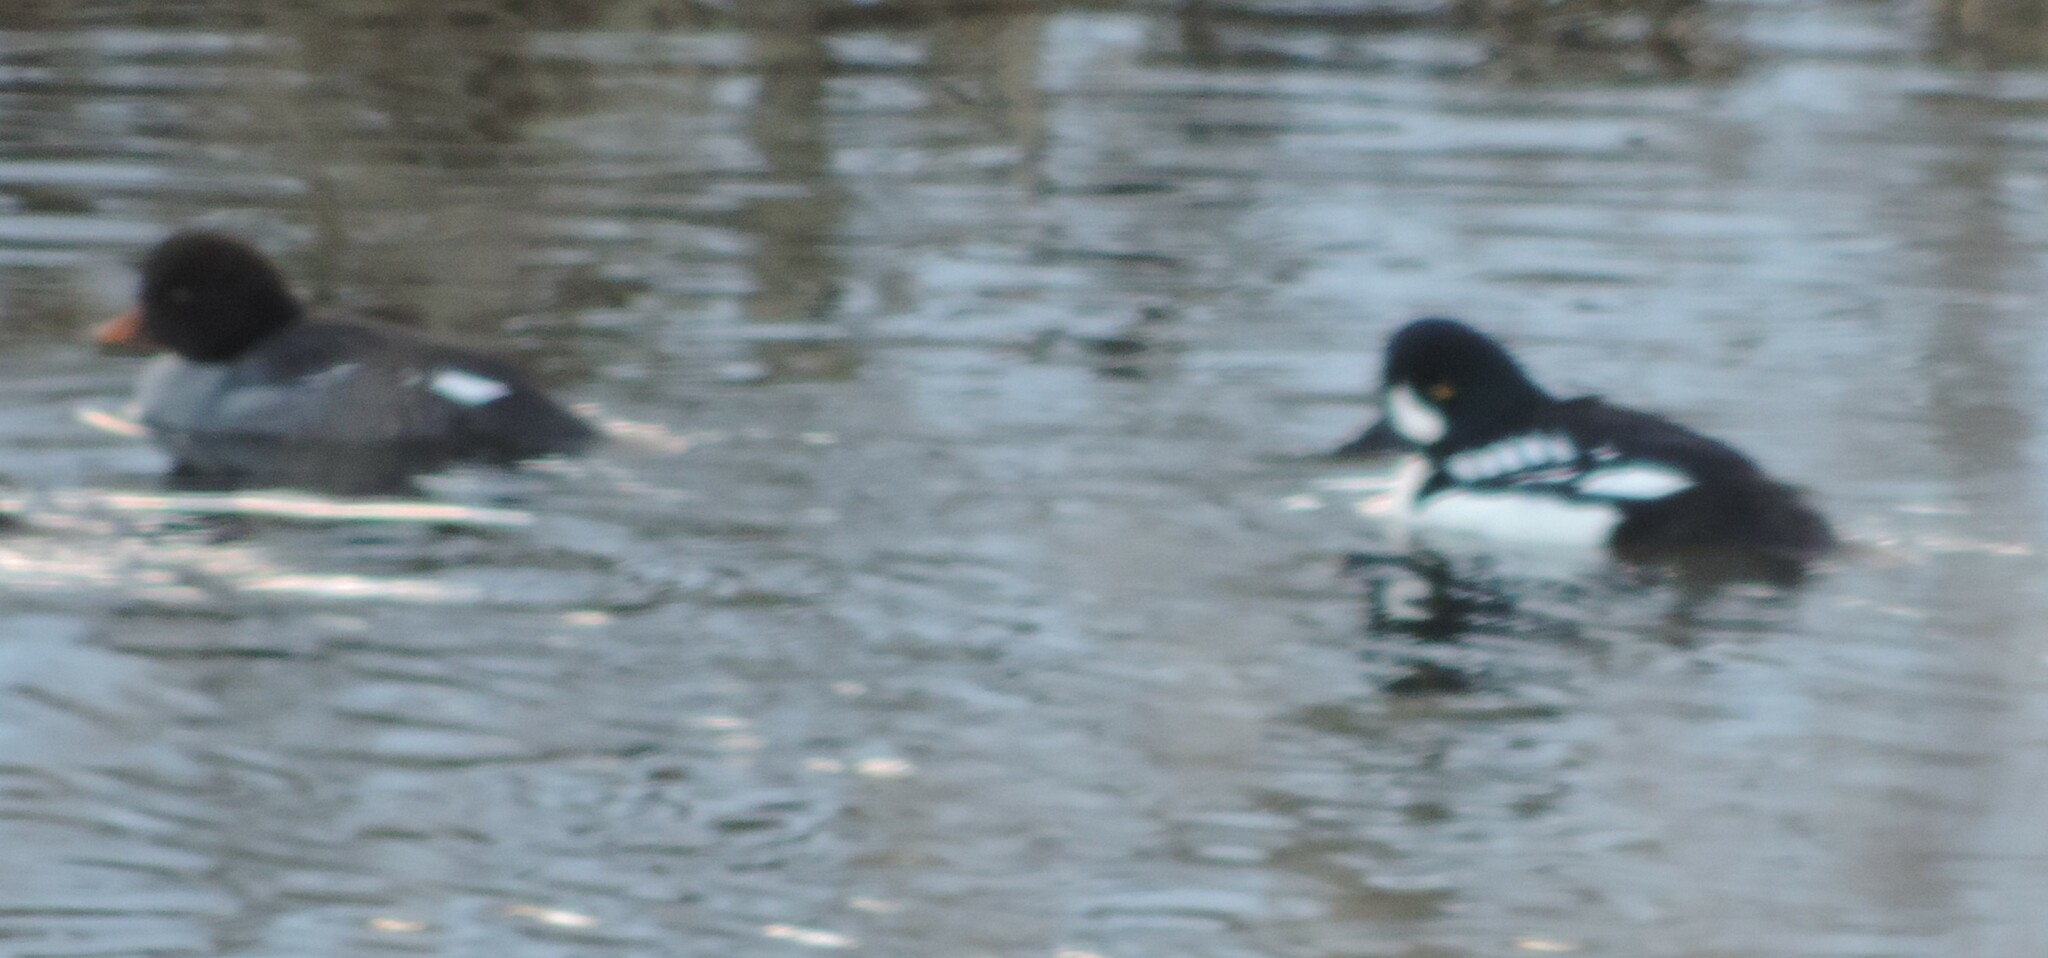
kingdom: Animalia
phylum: Chordata
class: Aves
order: Anseriformes
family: Anatidae
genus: Bucephala
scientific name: Bucephala islandica
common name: Barrow's goldeneye
